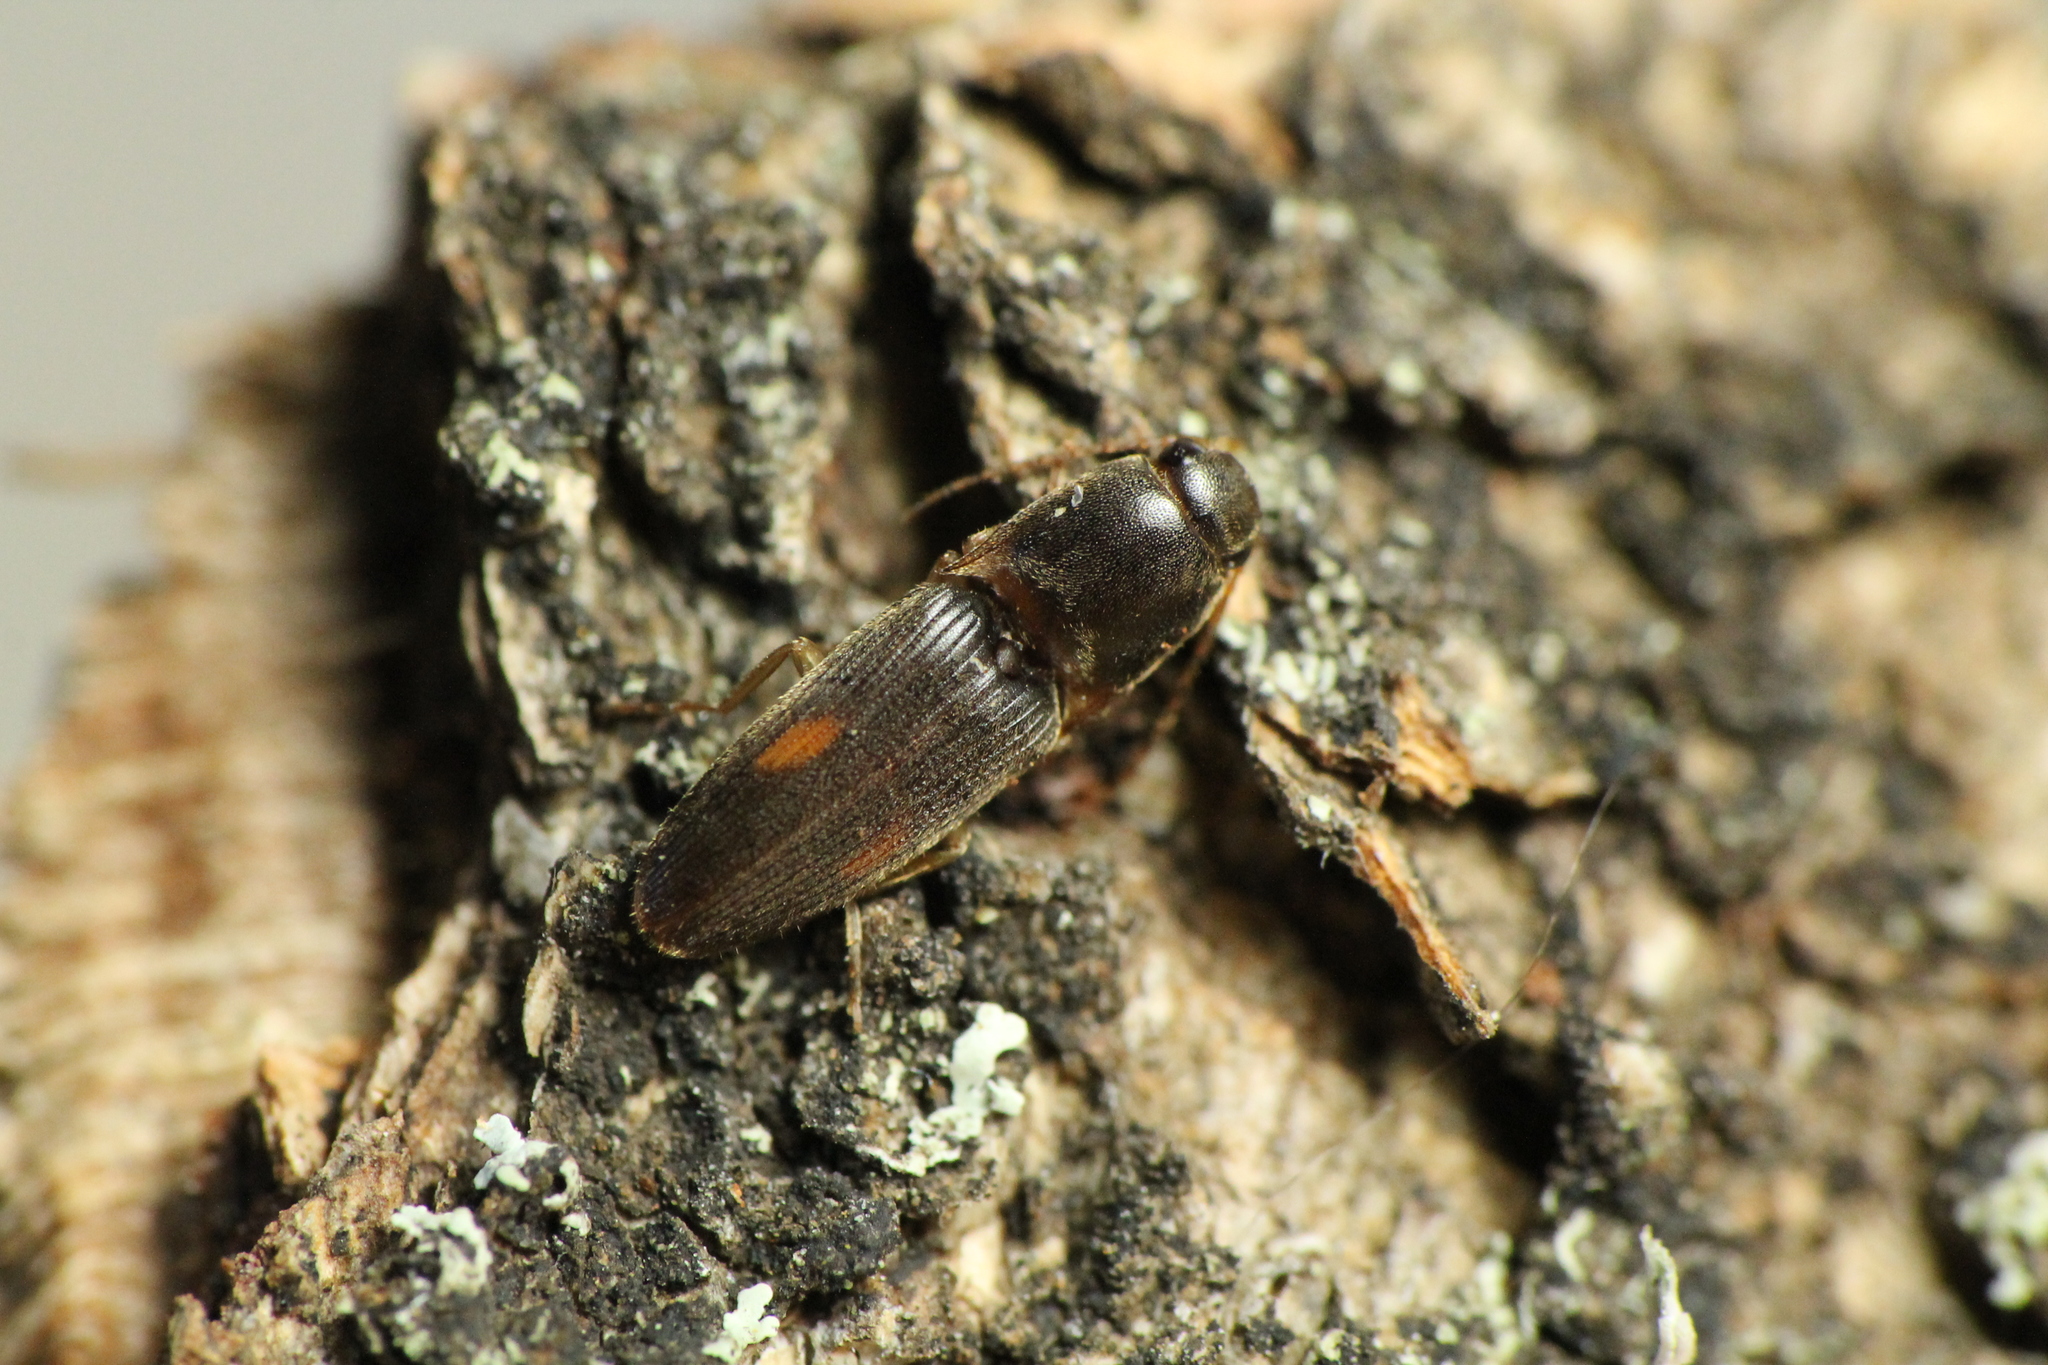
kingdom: Animalia
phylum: Arthropoda
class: Insecta
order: Coleoptera
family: Elateridae
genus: Monocrepidius
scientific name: Monocrepidius posticus
